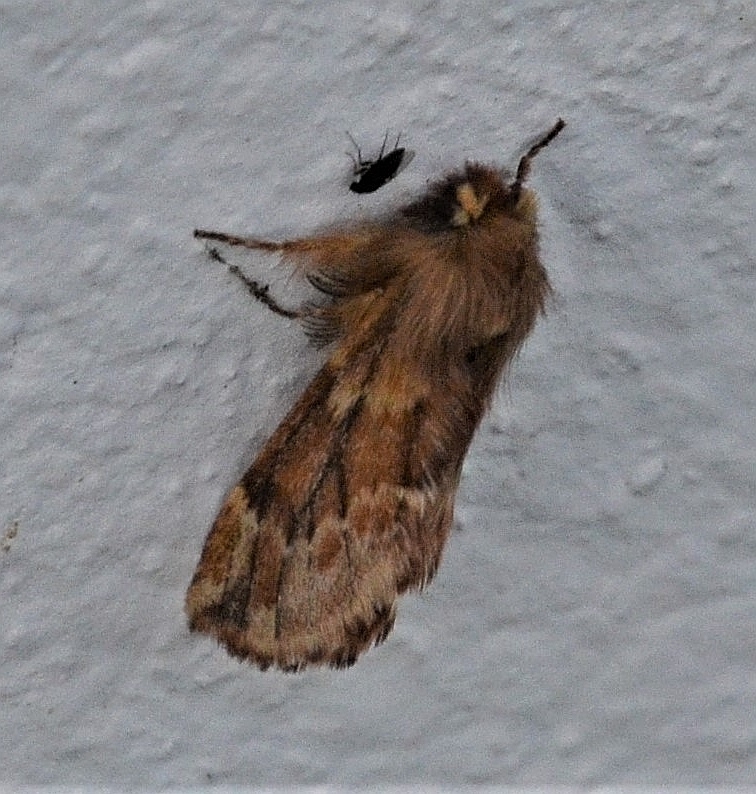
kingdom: Animalia
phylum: Arthropoda
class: Insecta
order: Lepidoptera
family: Notodontidae
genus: Ptilophora
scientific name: Ptilophora plumigera
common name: Plumed prominent
